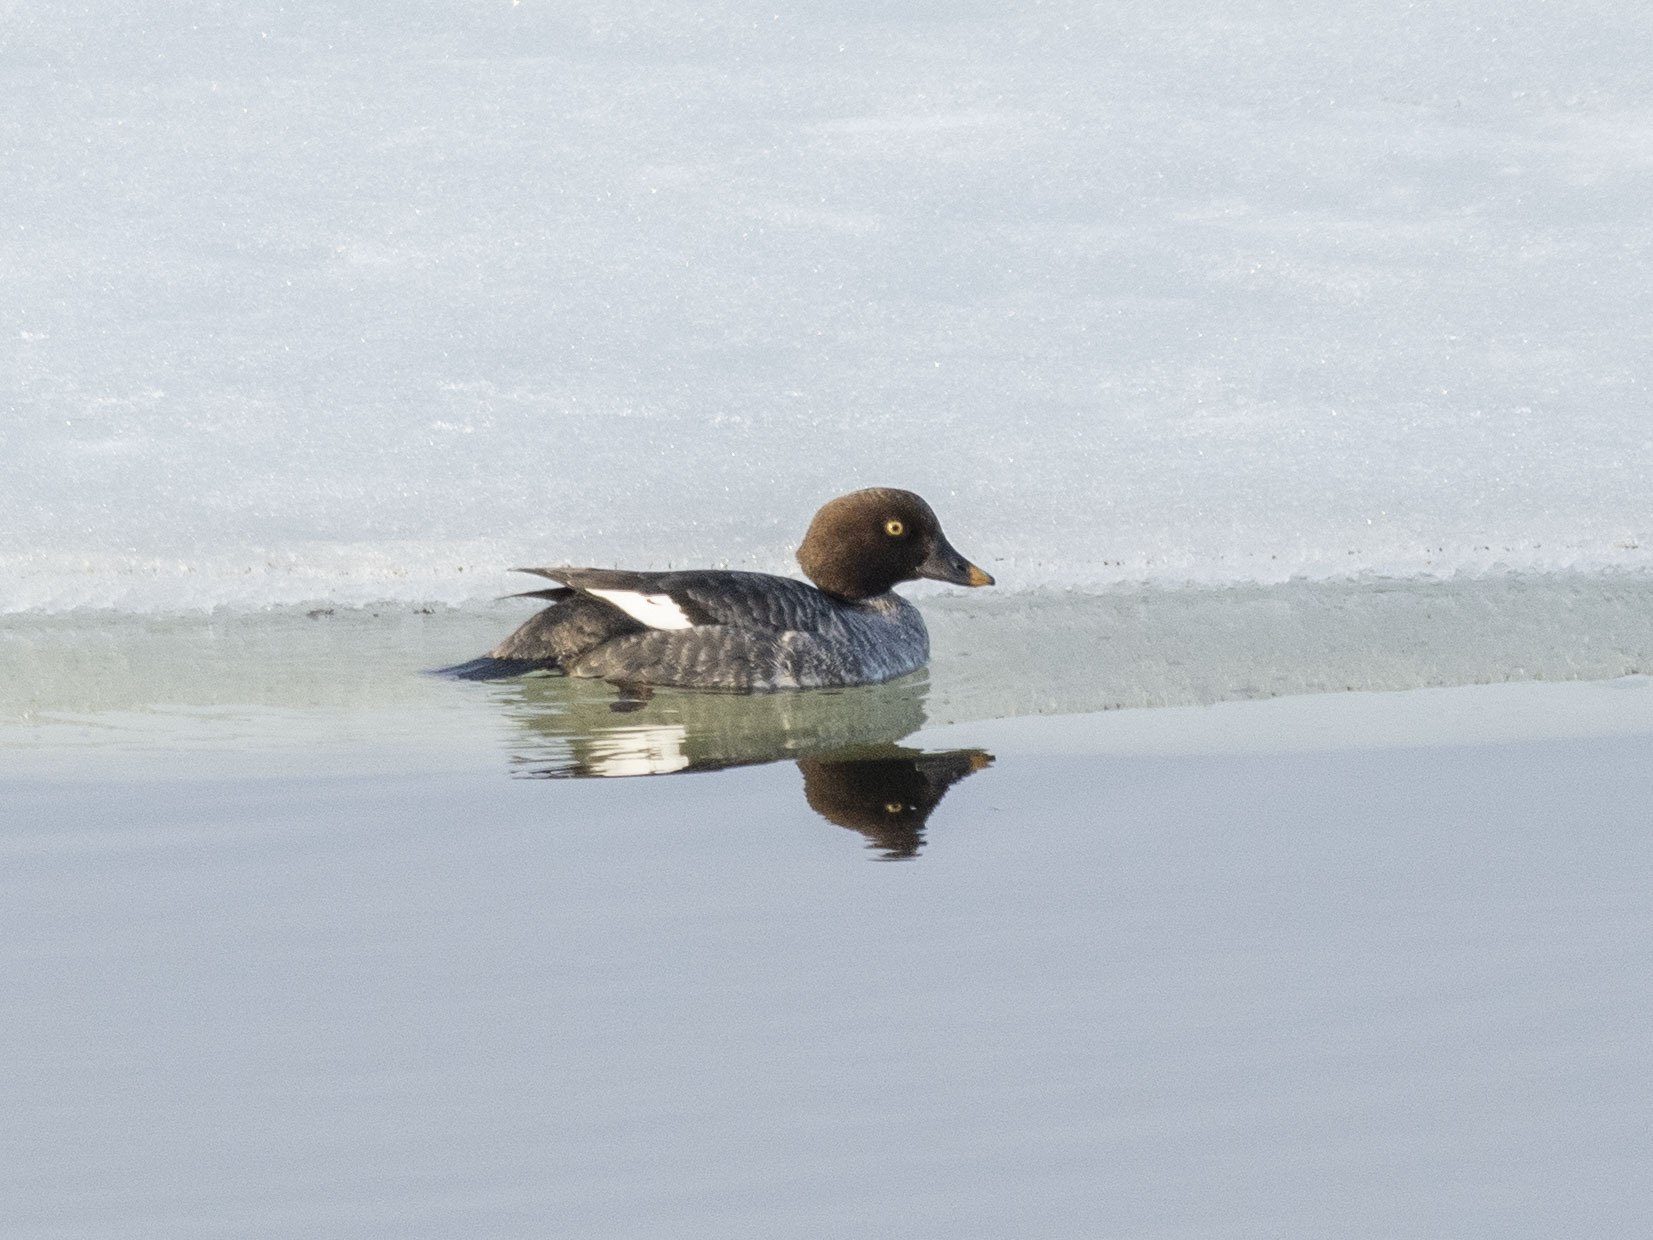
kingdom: Animalia
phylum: Chordata
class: Aves
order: Anseriformes
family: Anatidae
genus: Bucephala
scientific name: Bucephala clangula
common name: Common goldeneye
